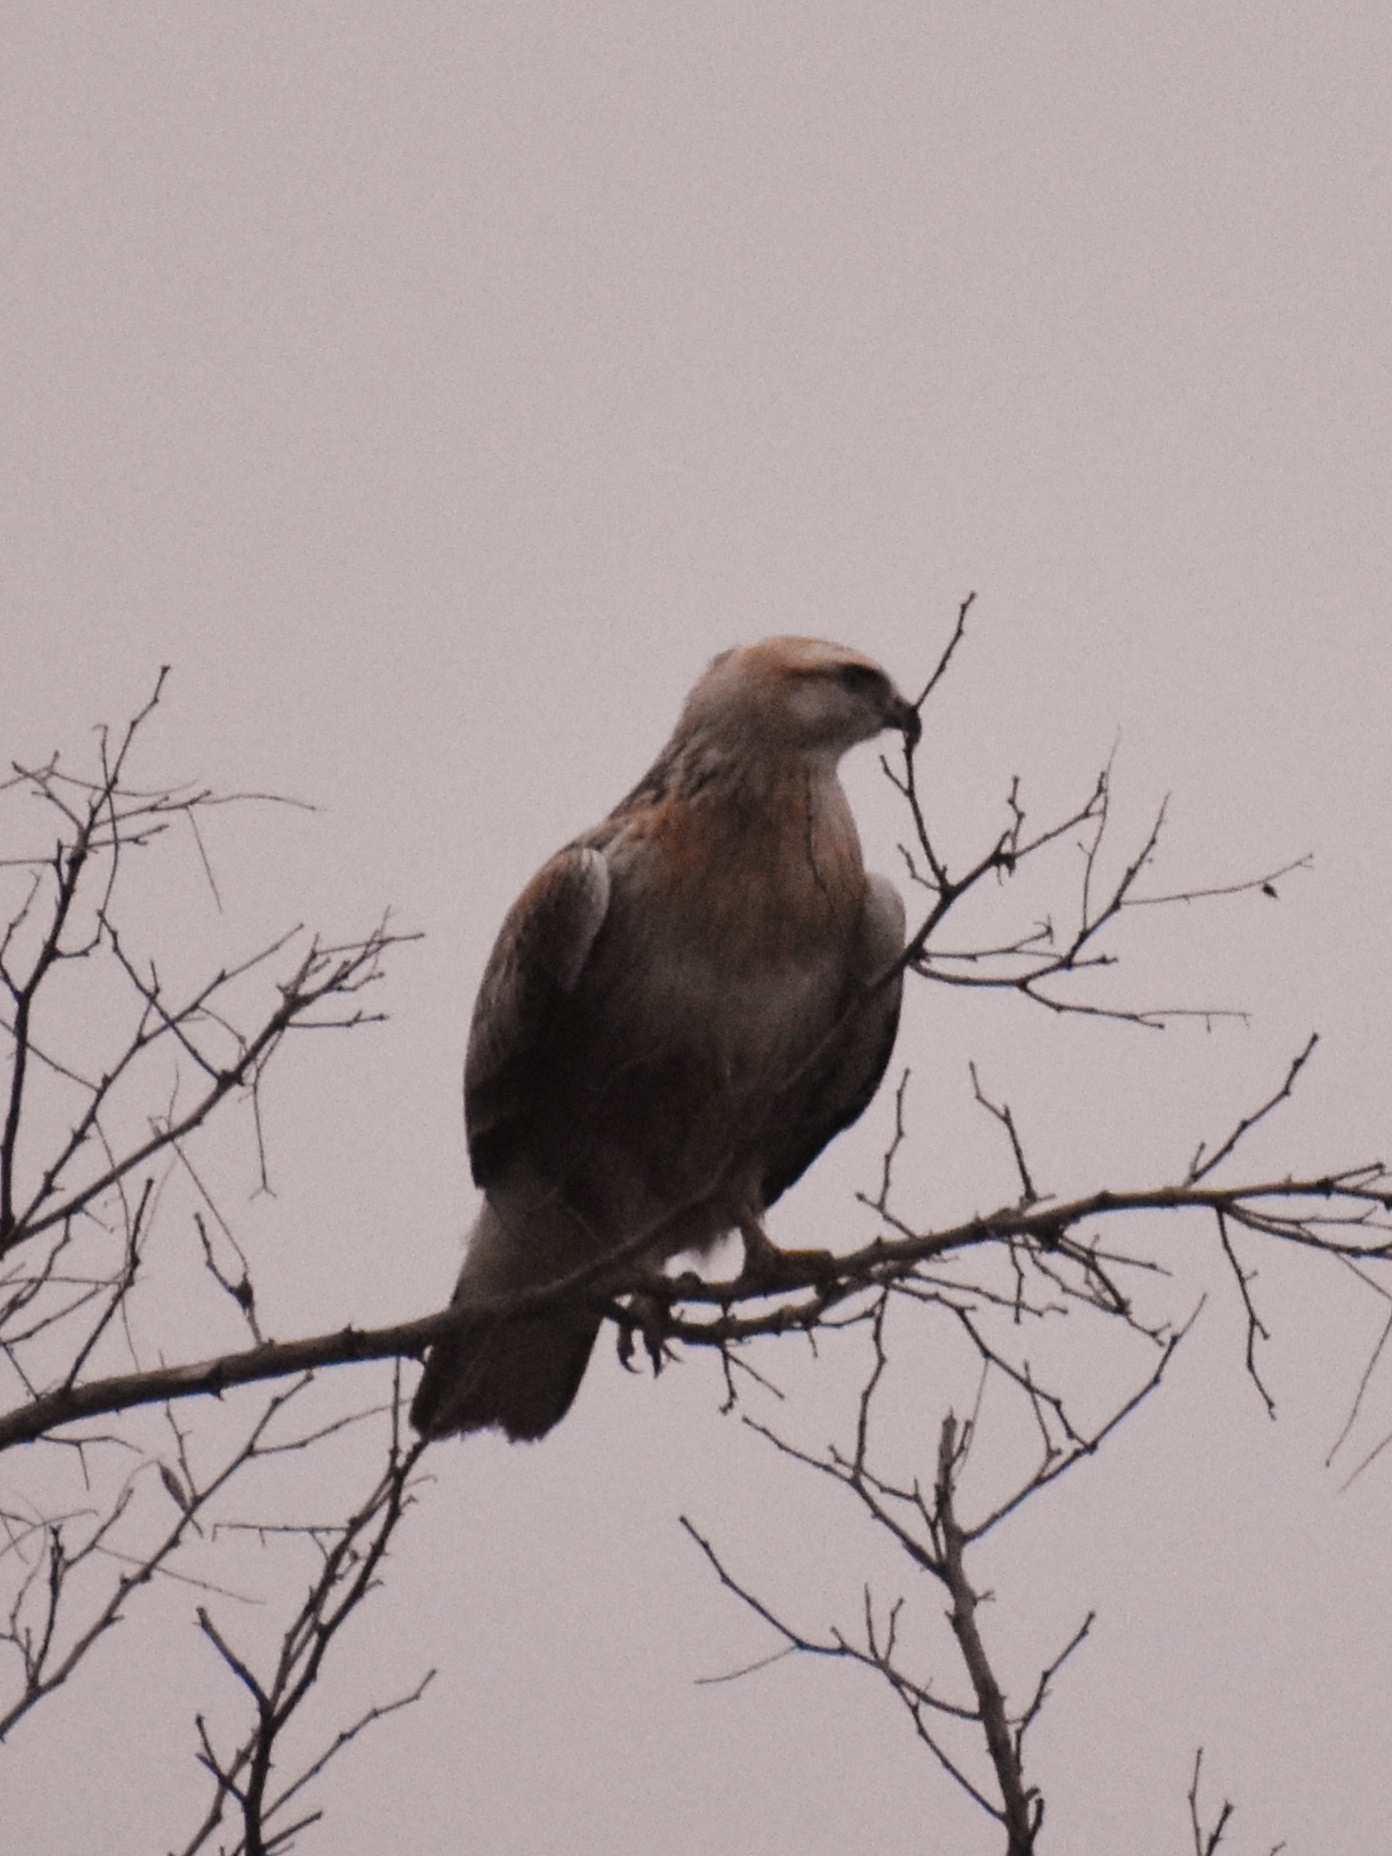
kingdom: Animalia
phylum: Chordata
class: Aves
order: Accipitriformes
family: Accipitridae
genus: Buteo
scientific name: Buteo rufinus
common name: Long-legged buzzard
